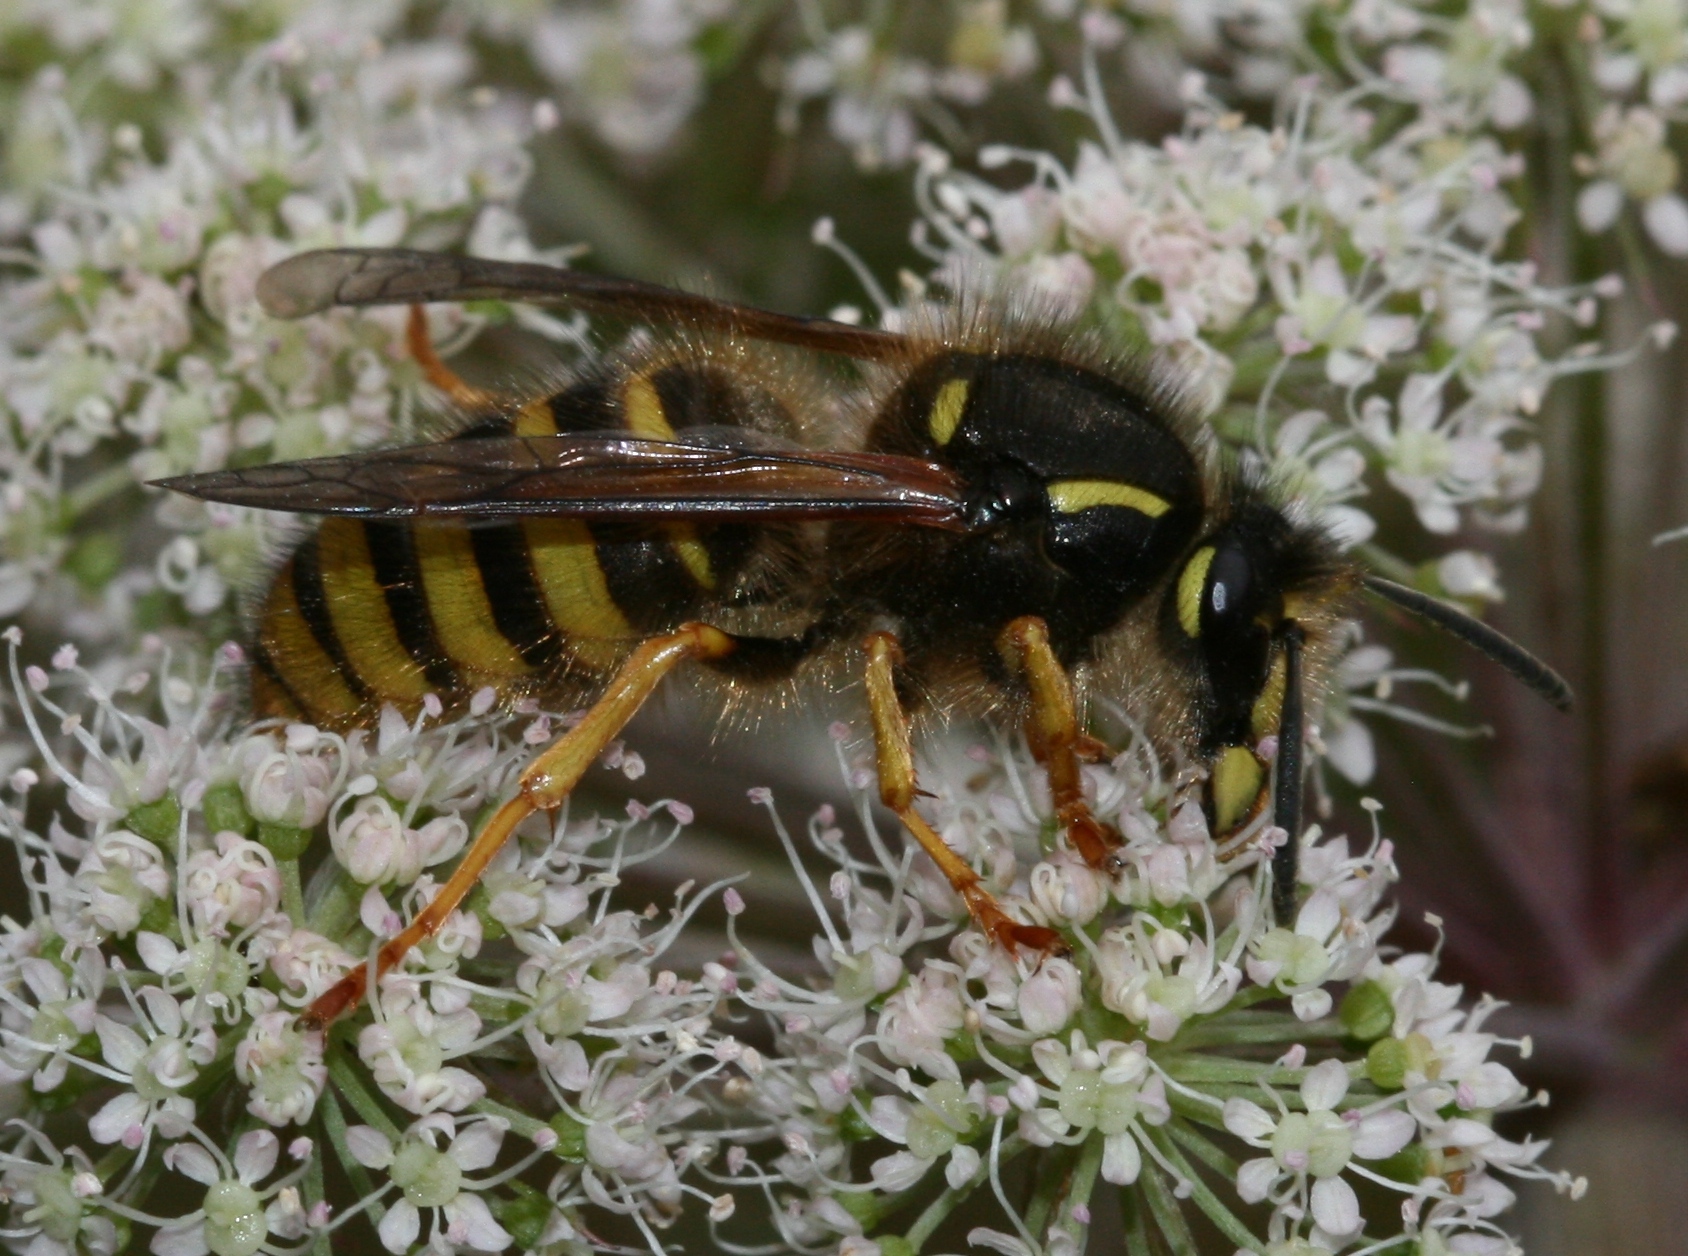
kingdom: Animalia
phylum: Arthropoda
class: Insecta
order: Hymenoptera
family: Vespidae
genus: Dolichovespula
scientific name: Dolichovespula sylvestris
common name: Tree wasp
